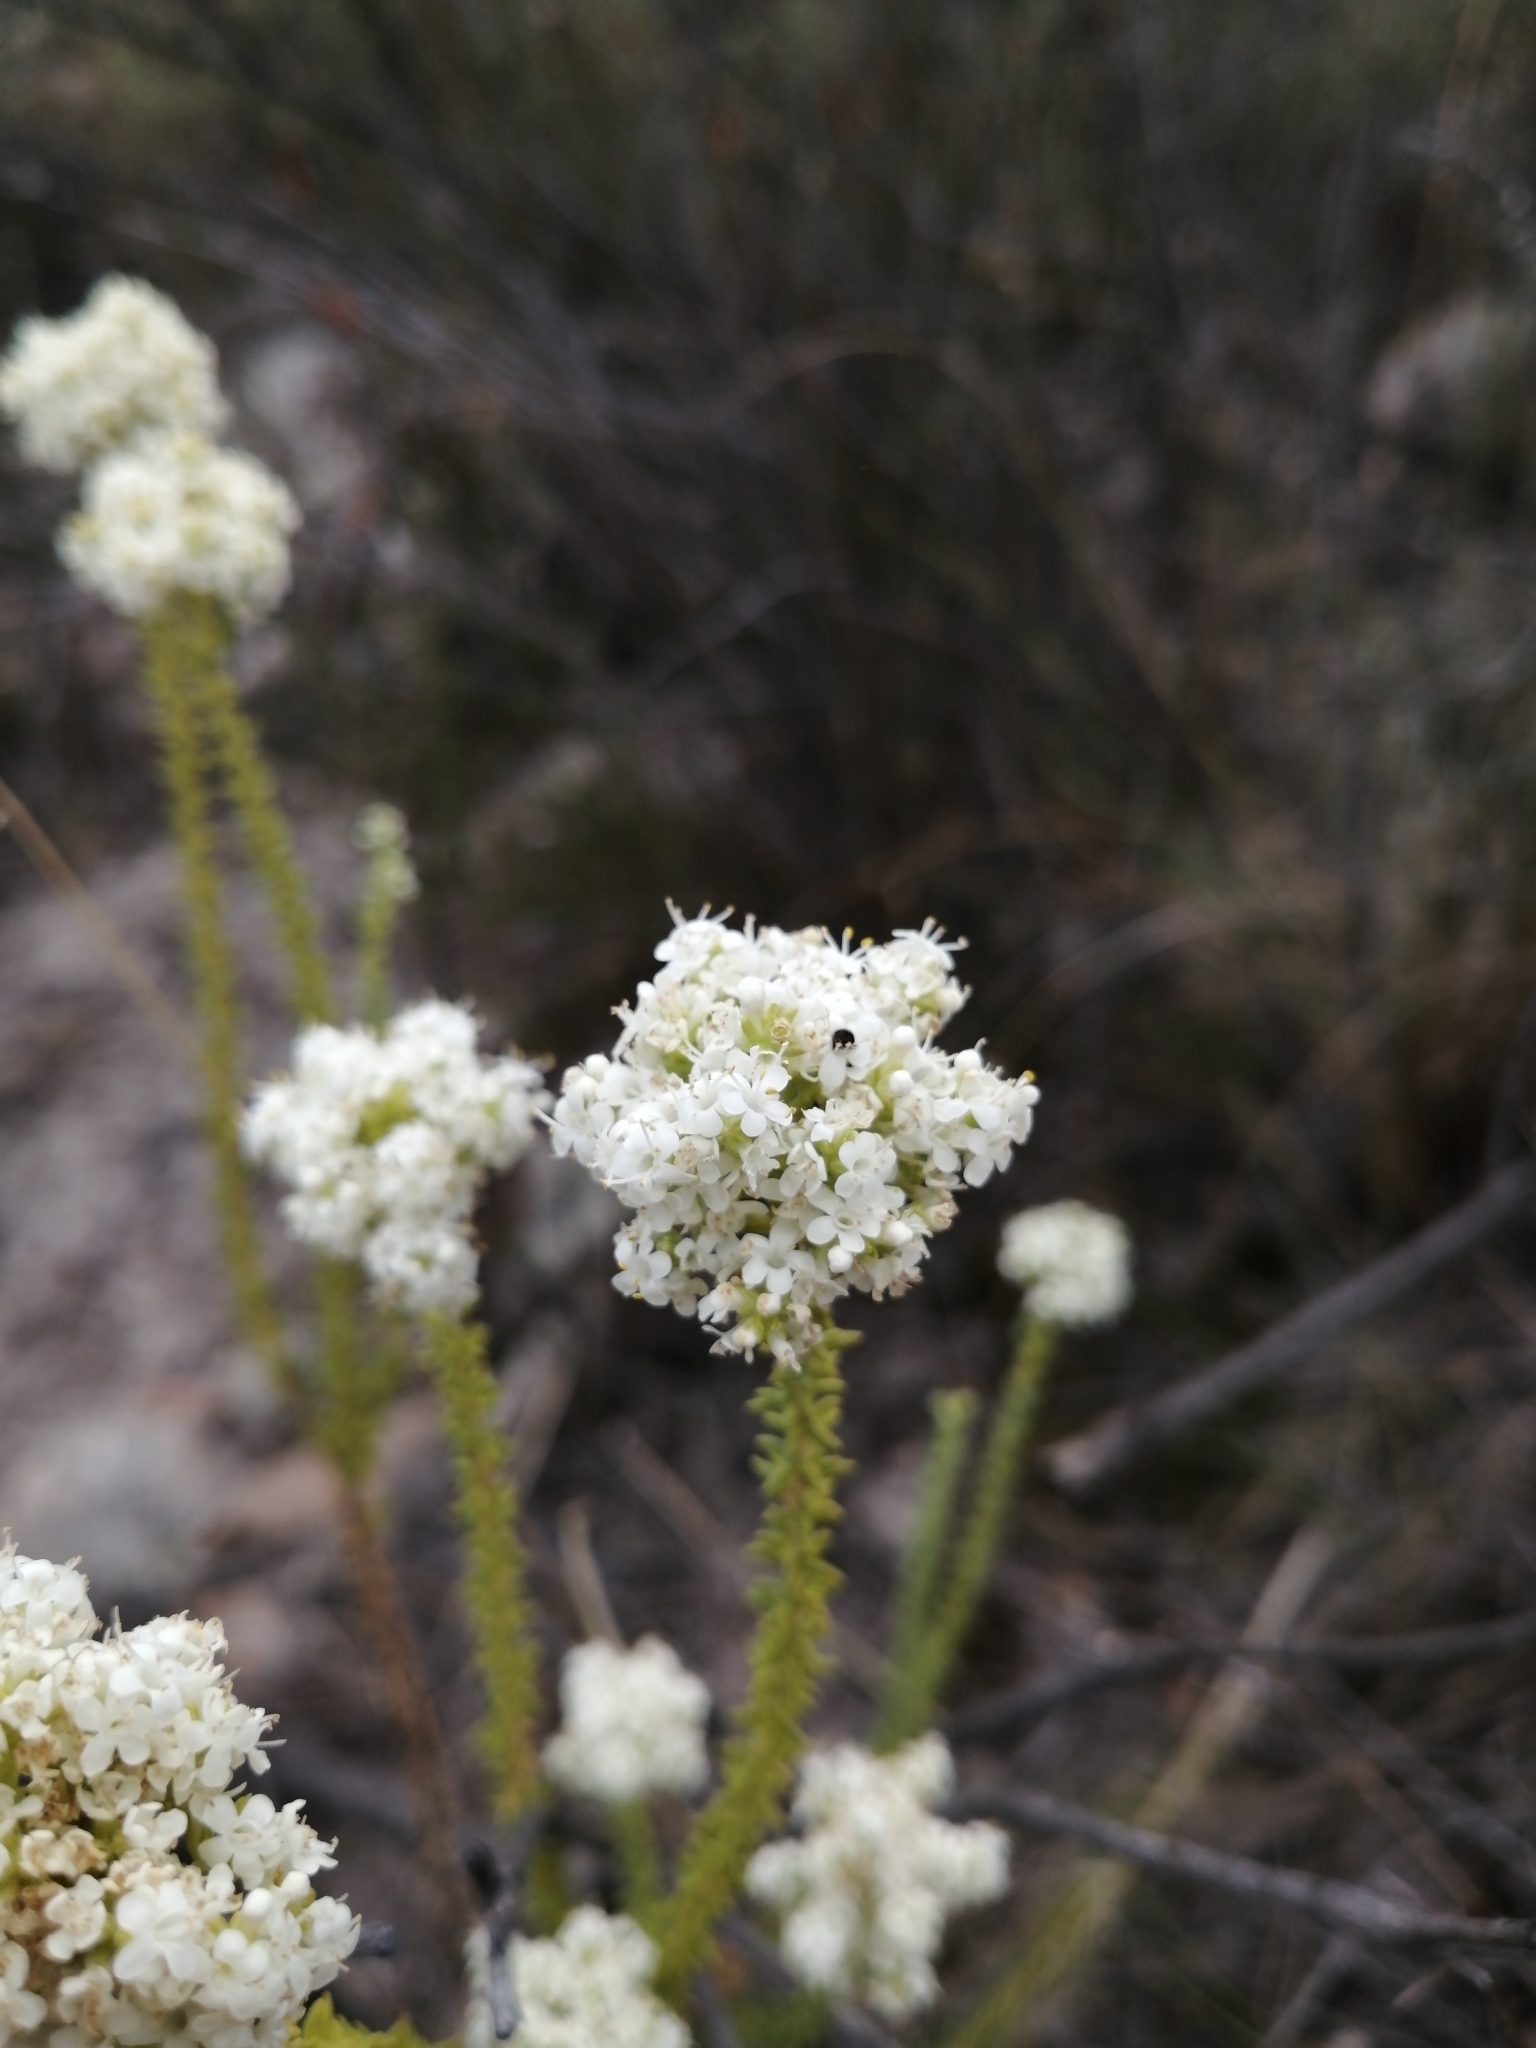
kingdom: Plantae
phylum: Tracheophyta
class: Magnoliopsida
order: Lamiales
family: Scrophulariaceae
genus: Selago
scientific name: Selago singularis
